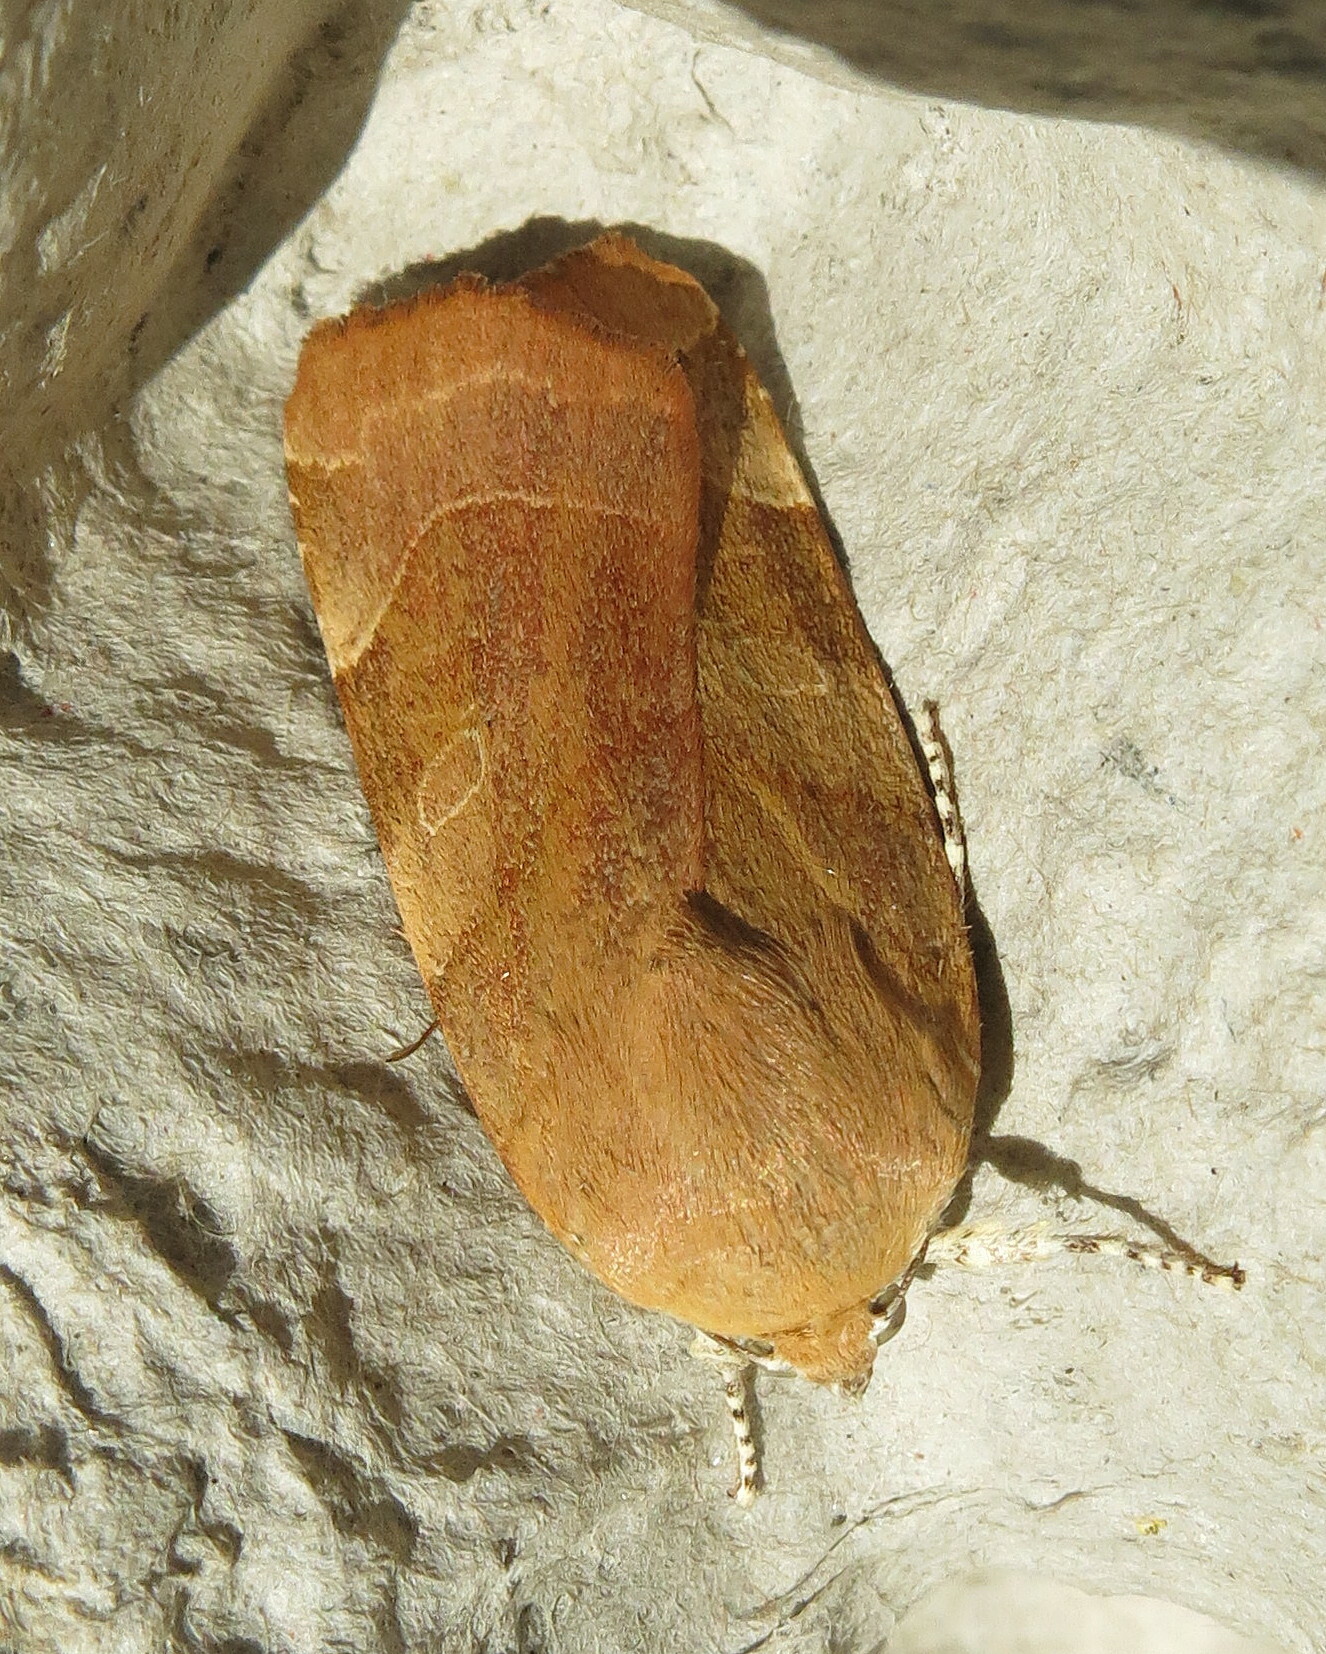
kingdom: Animalia
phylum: Arthropoda
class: Insecta
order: Lepidoptera
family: Noctuidae
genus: Noctua
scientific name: Noctua fimbriata
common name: Broad-bordered yellow underwing
